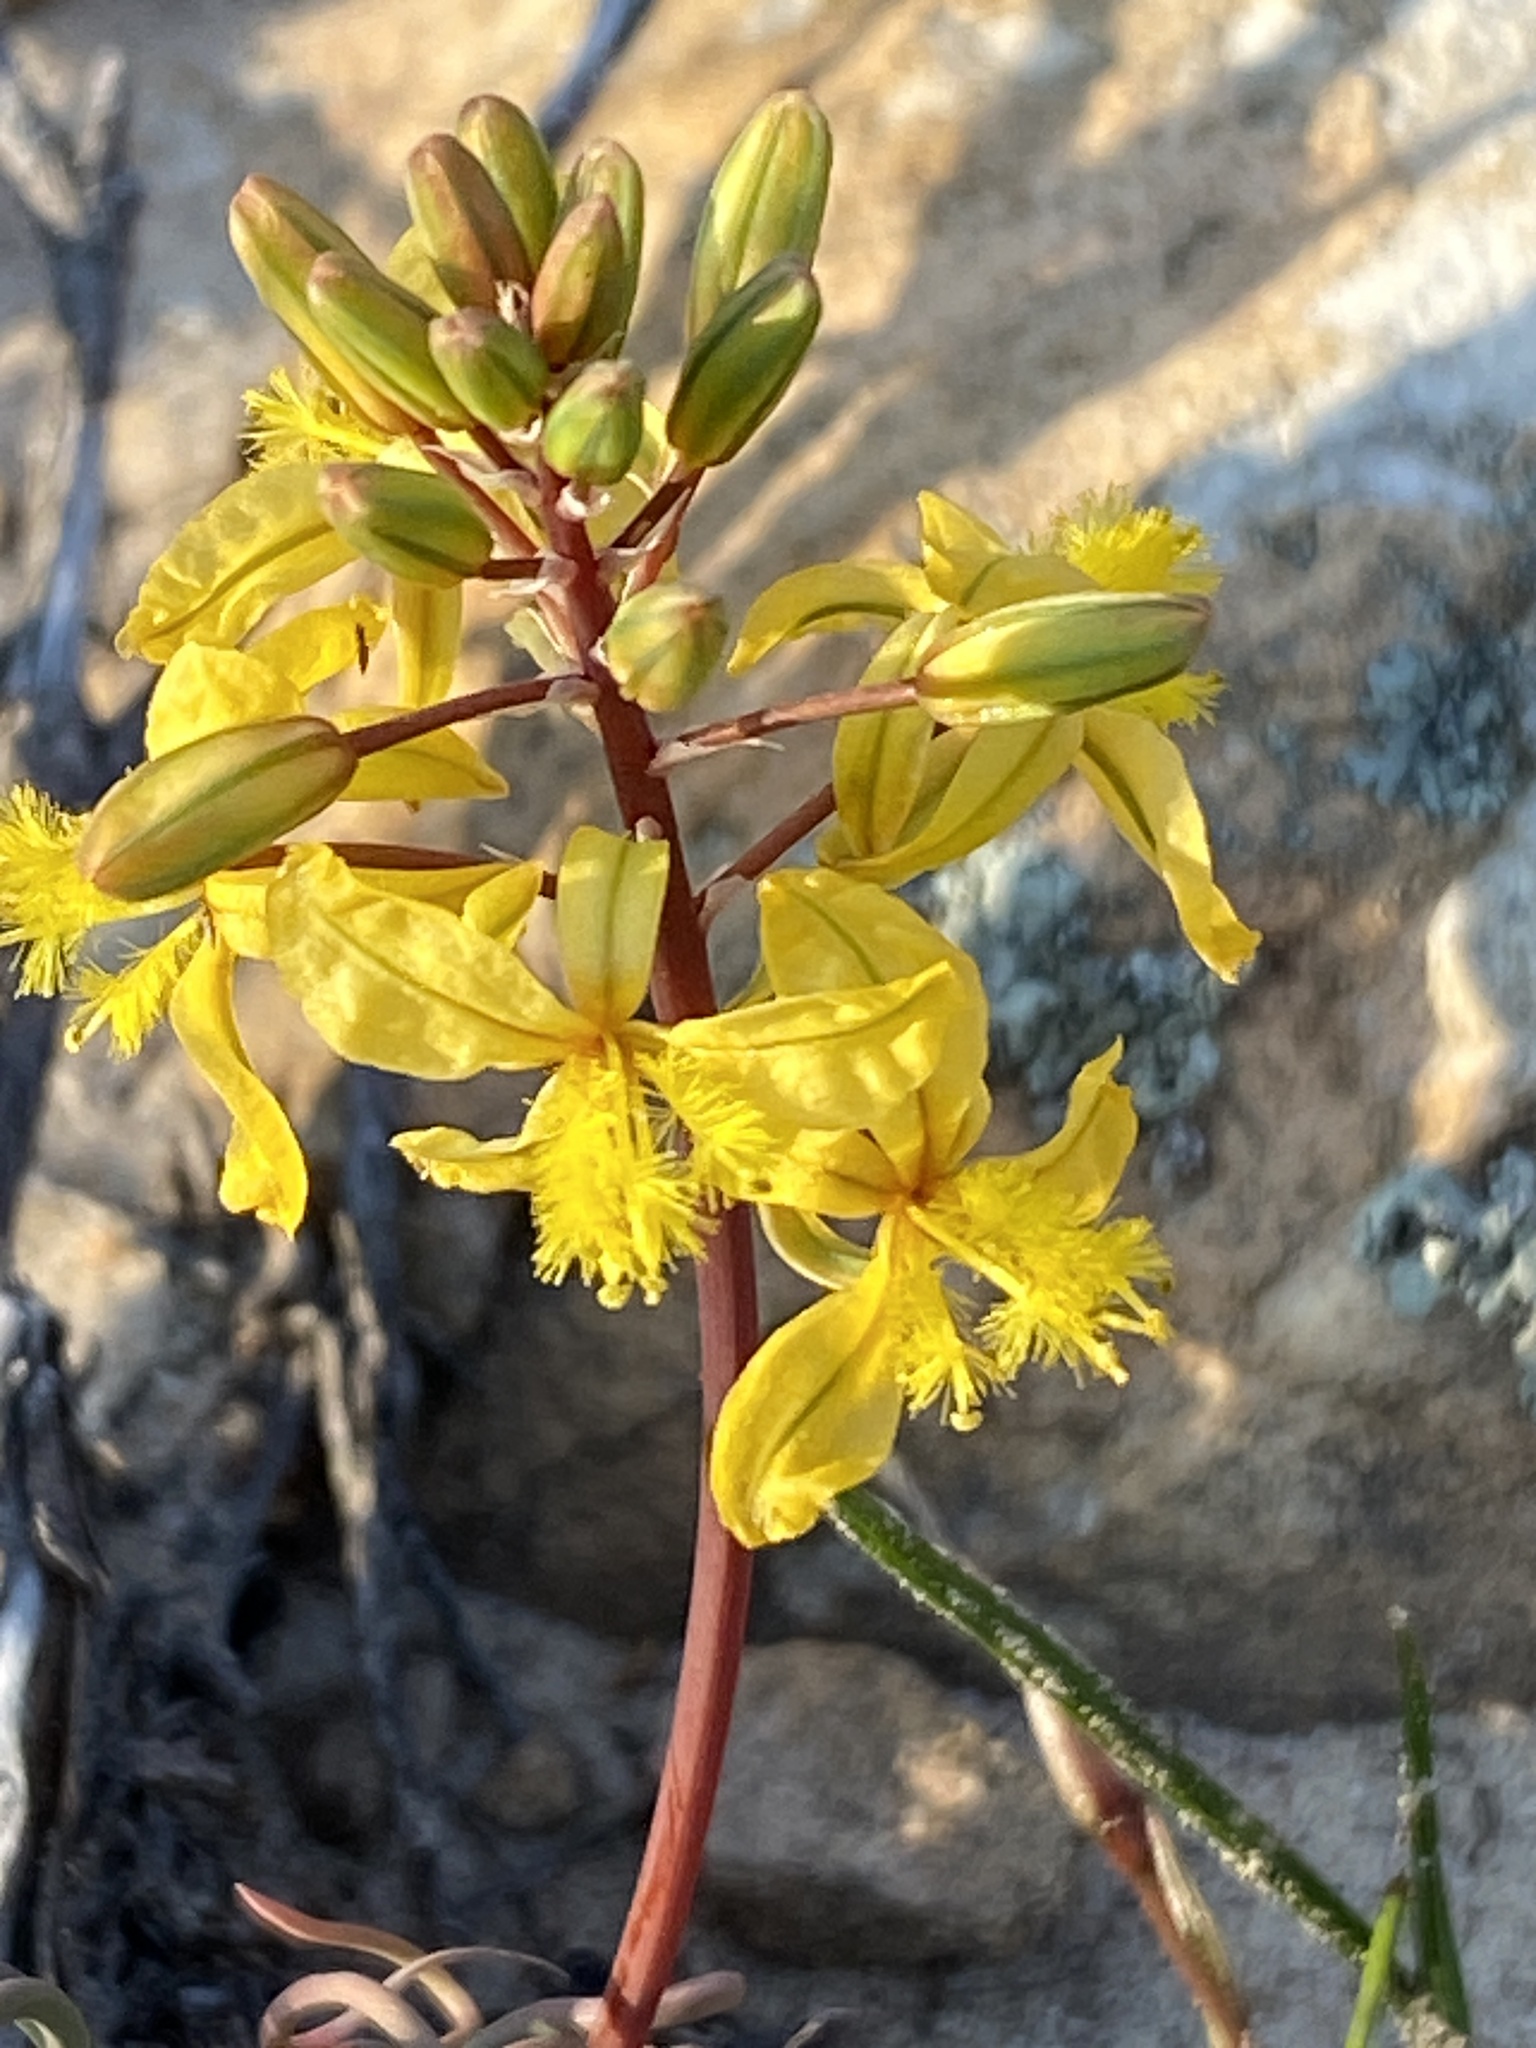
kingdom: Plantae
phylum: Tracheophyta
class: Liliopsida
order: Asparagales
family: Asphodelaceae
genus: Bulbine
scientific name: Bulbine torta
